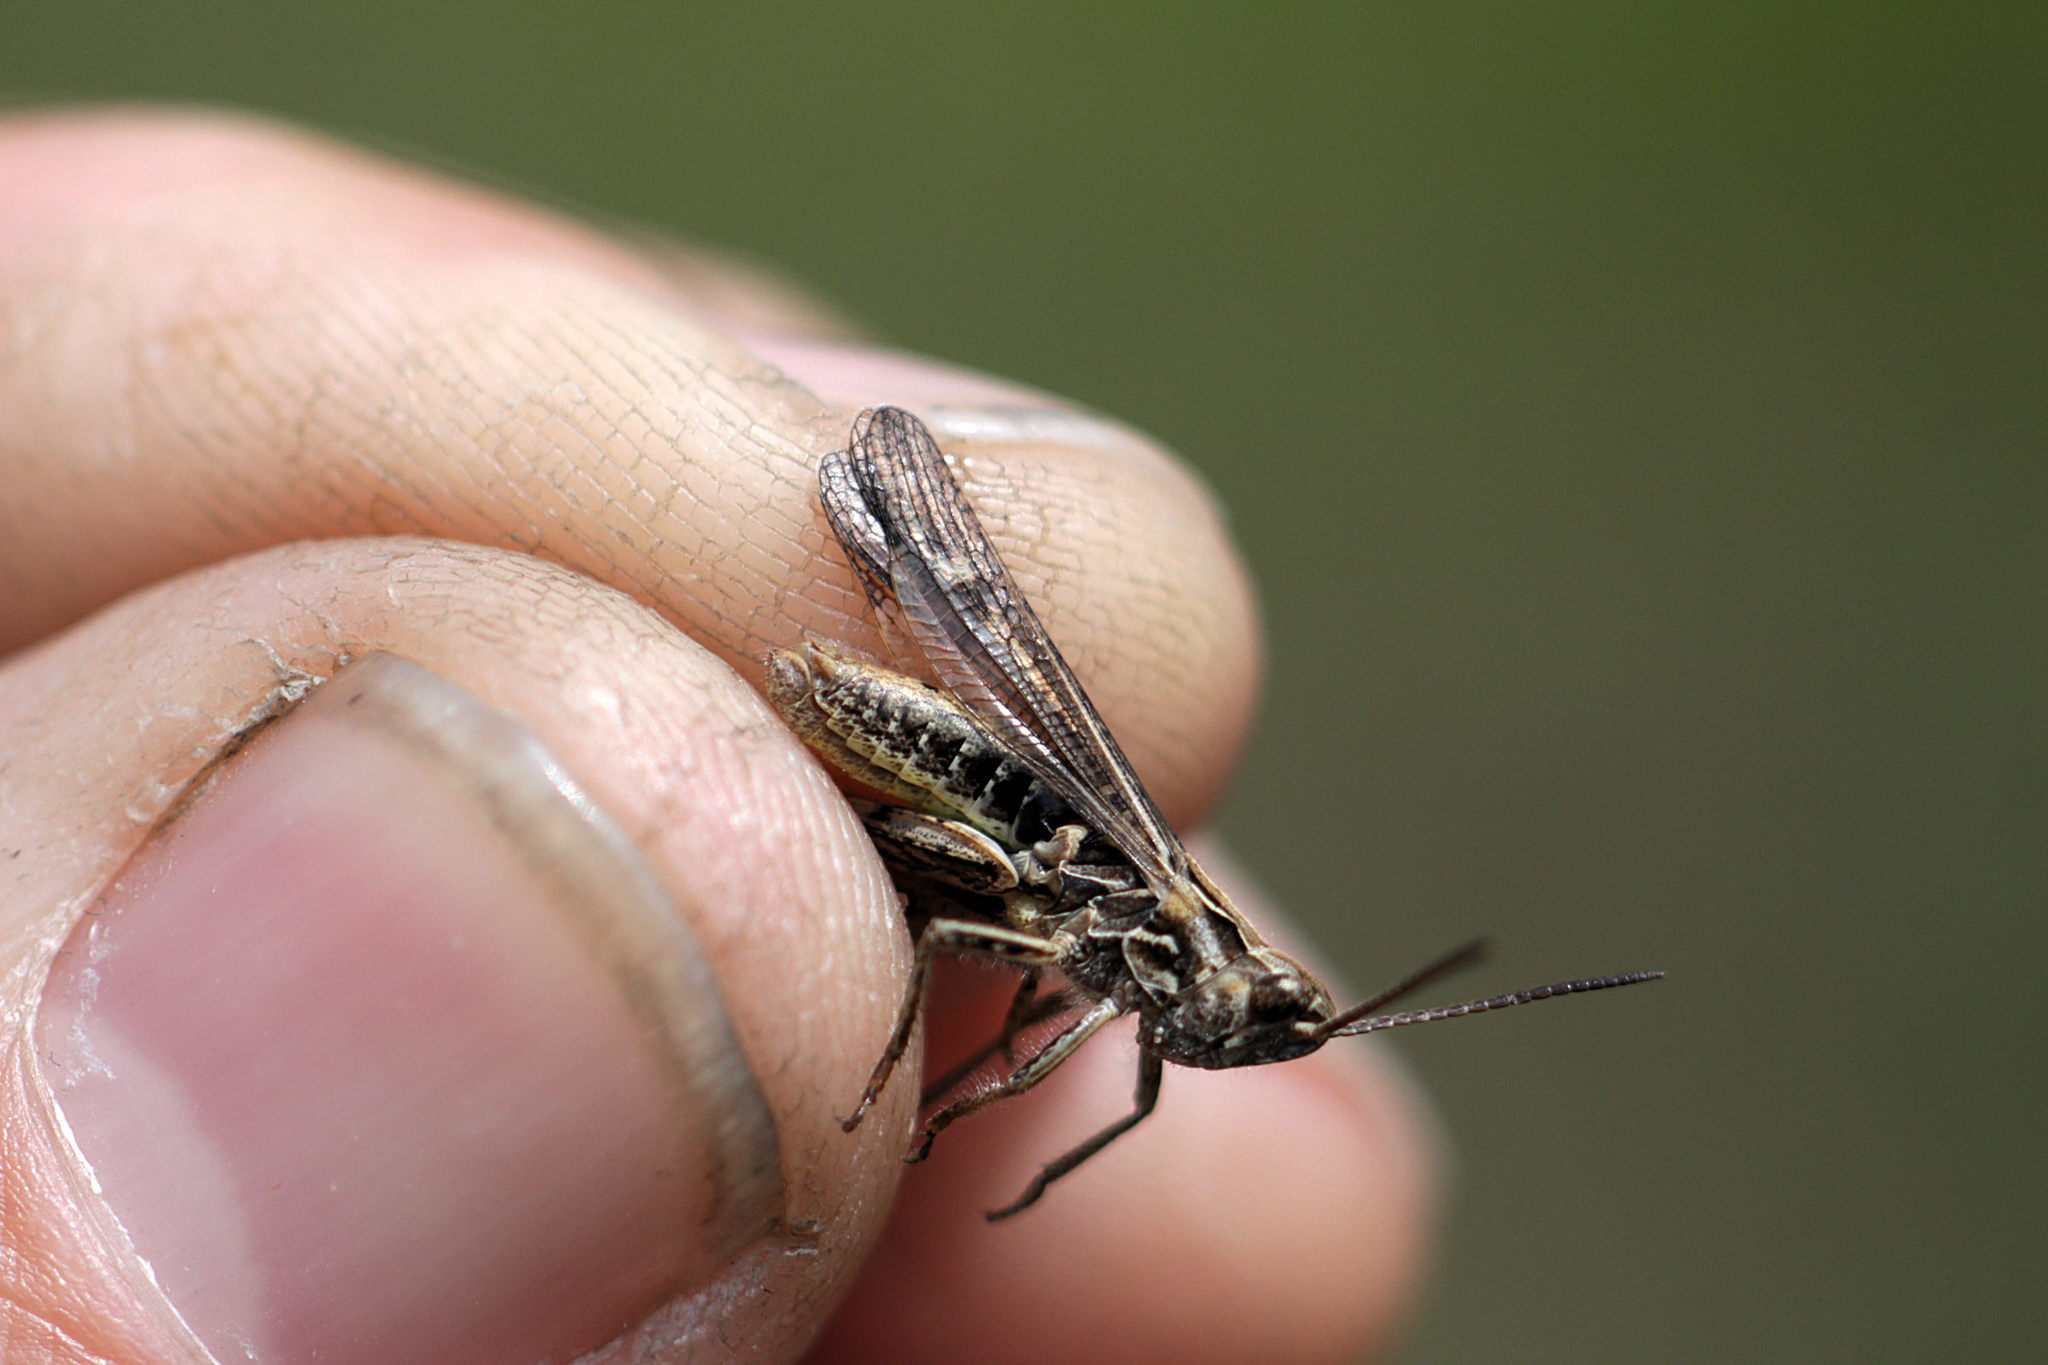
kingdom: Animalia
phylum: Arthropoda
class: Insecta
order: Orthoptera
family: Acrididae
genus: Chorthippus
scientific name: Chorthippus biguttulus
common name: Bow-winged grasshopper
